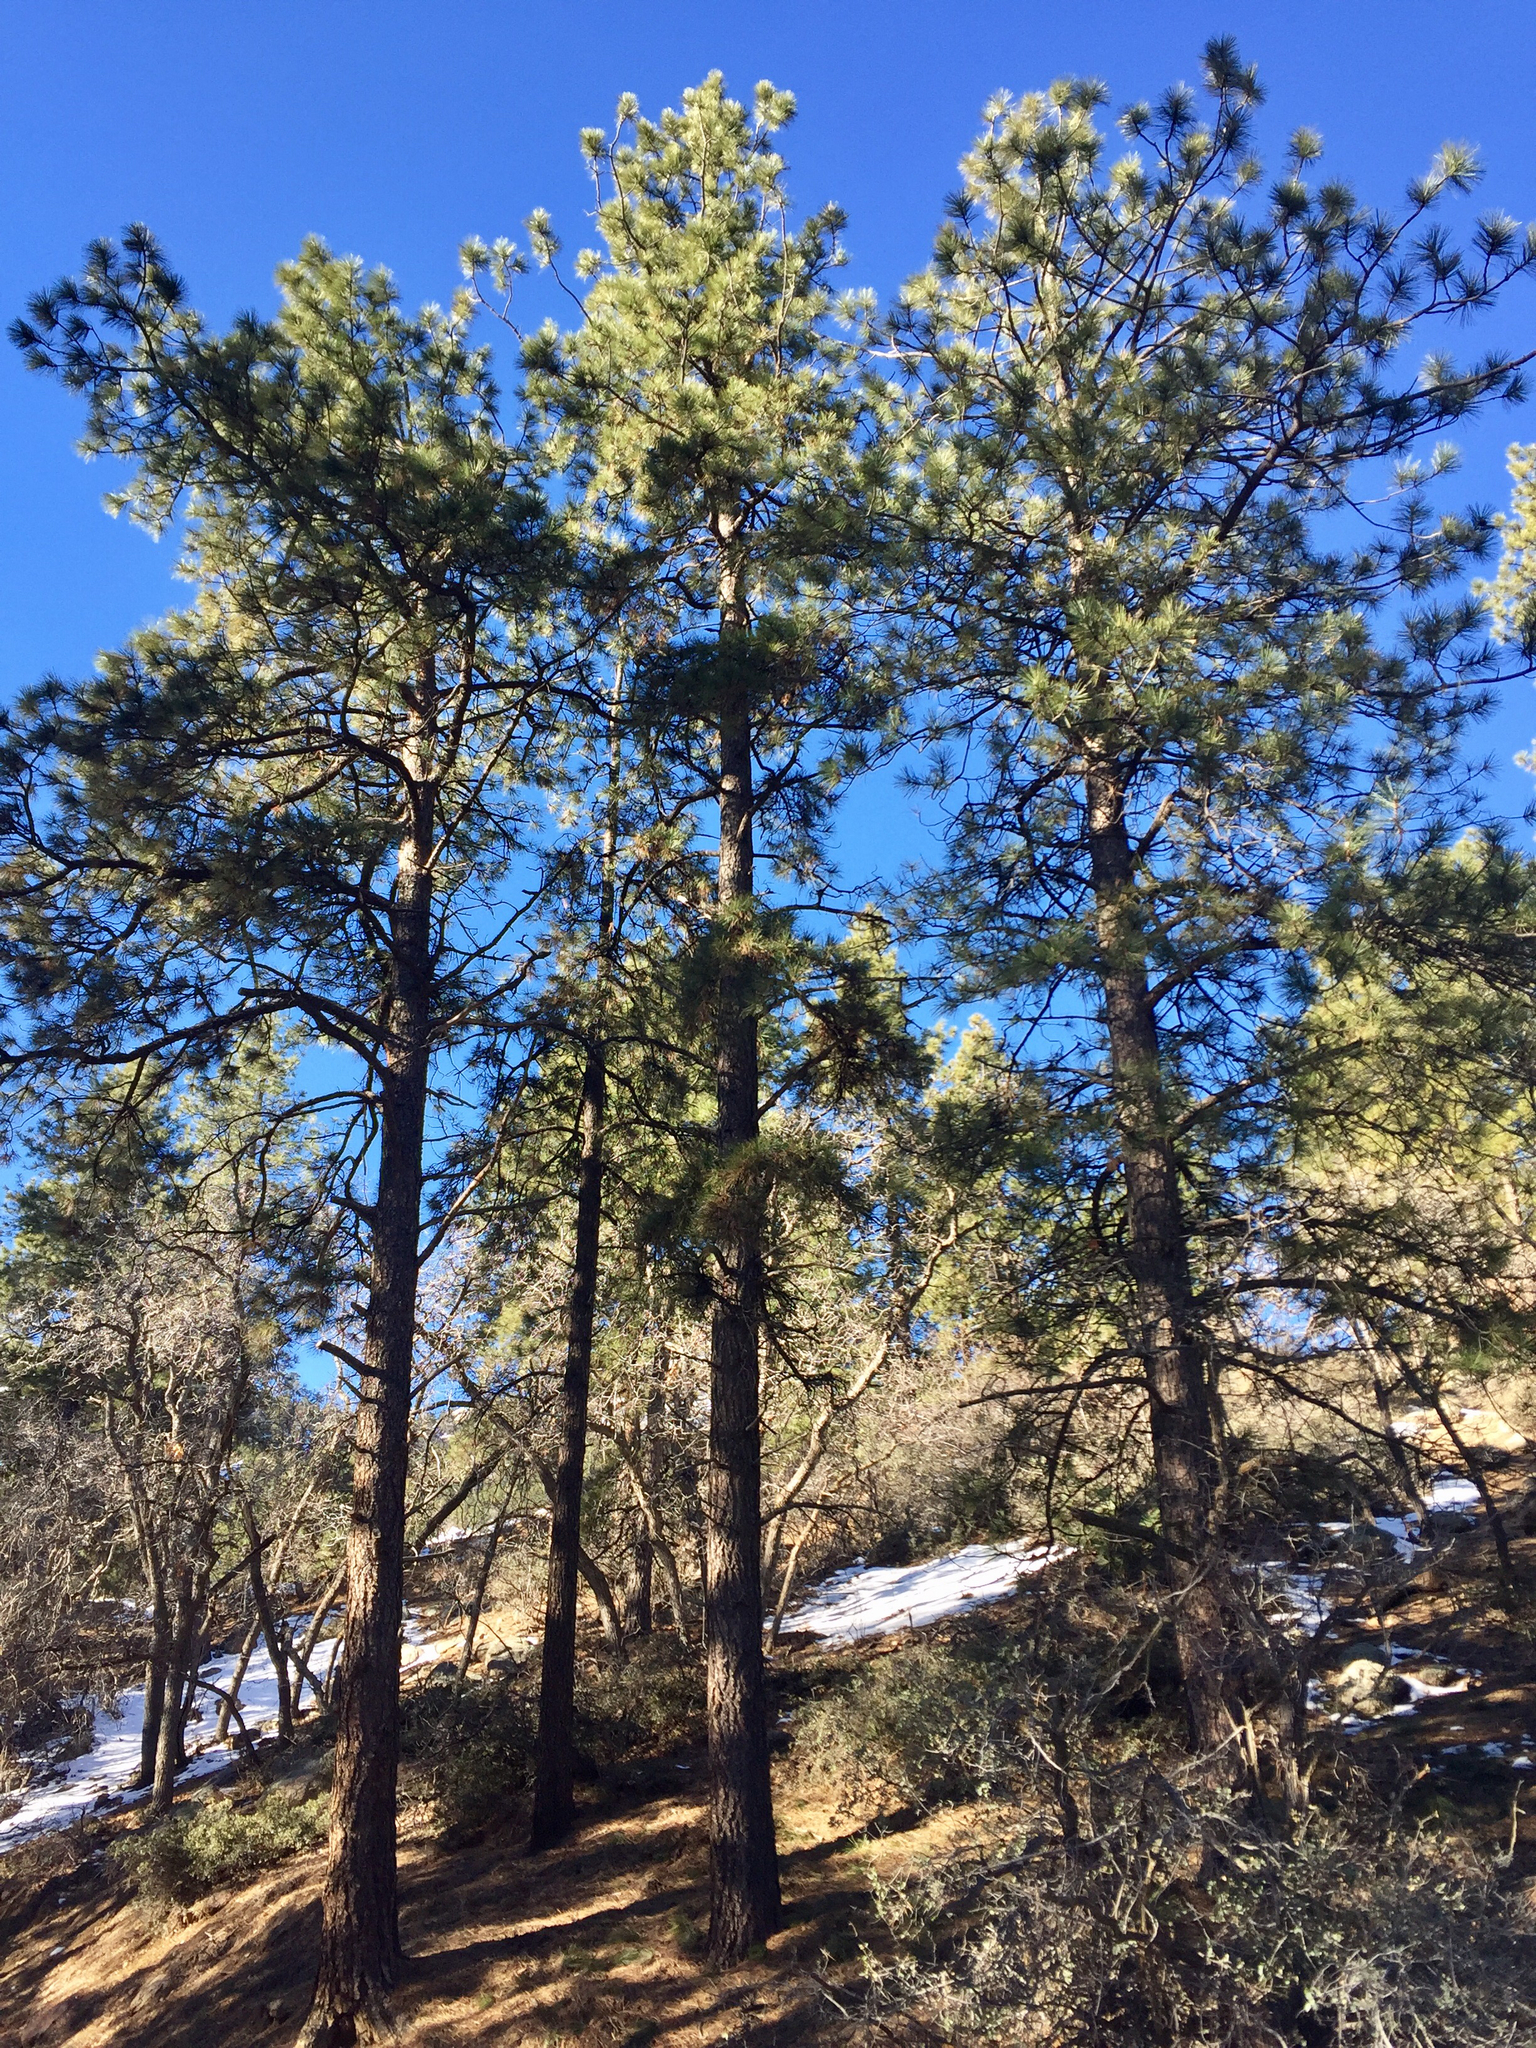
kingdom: Plantae
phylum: Tracheophyta
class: Pinopsida
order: Pinales
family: Pinaceae
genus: Pinus
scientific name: Pinus ponderosa
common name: Western yellow-pine
